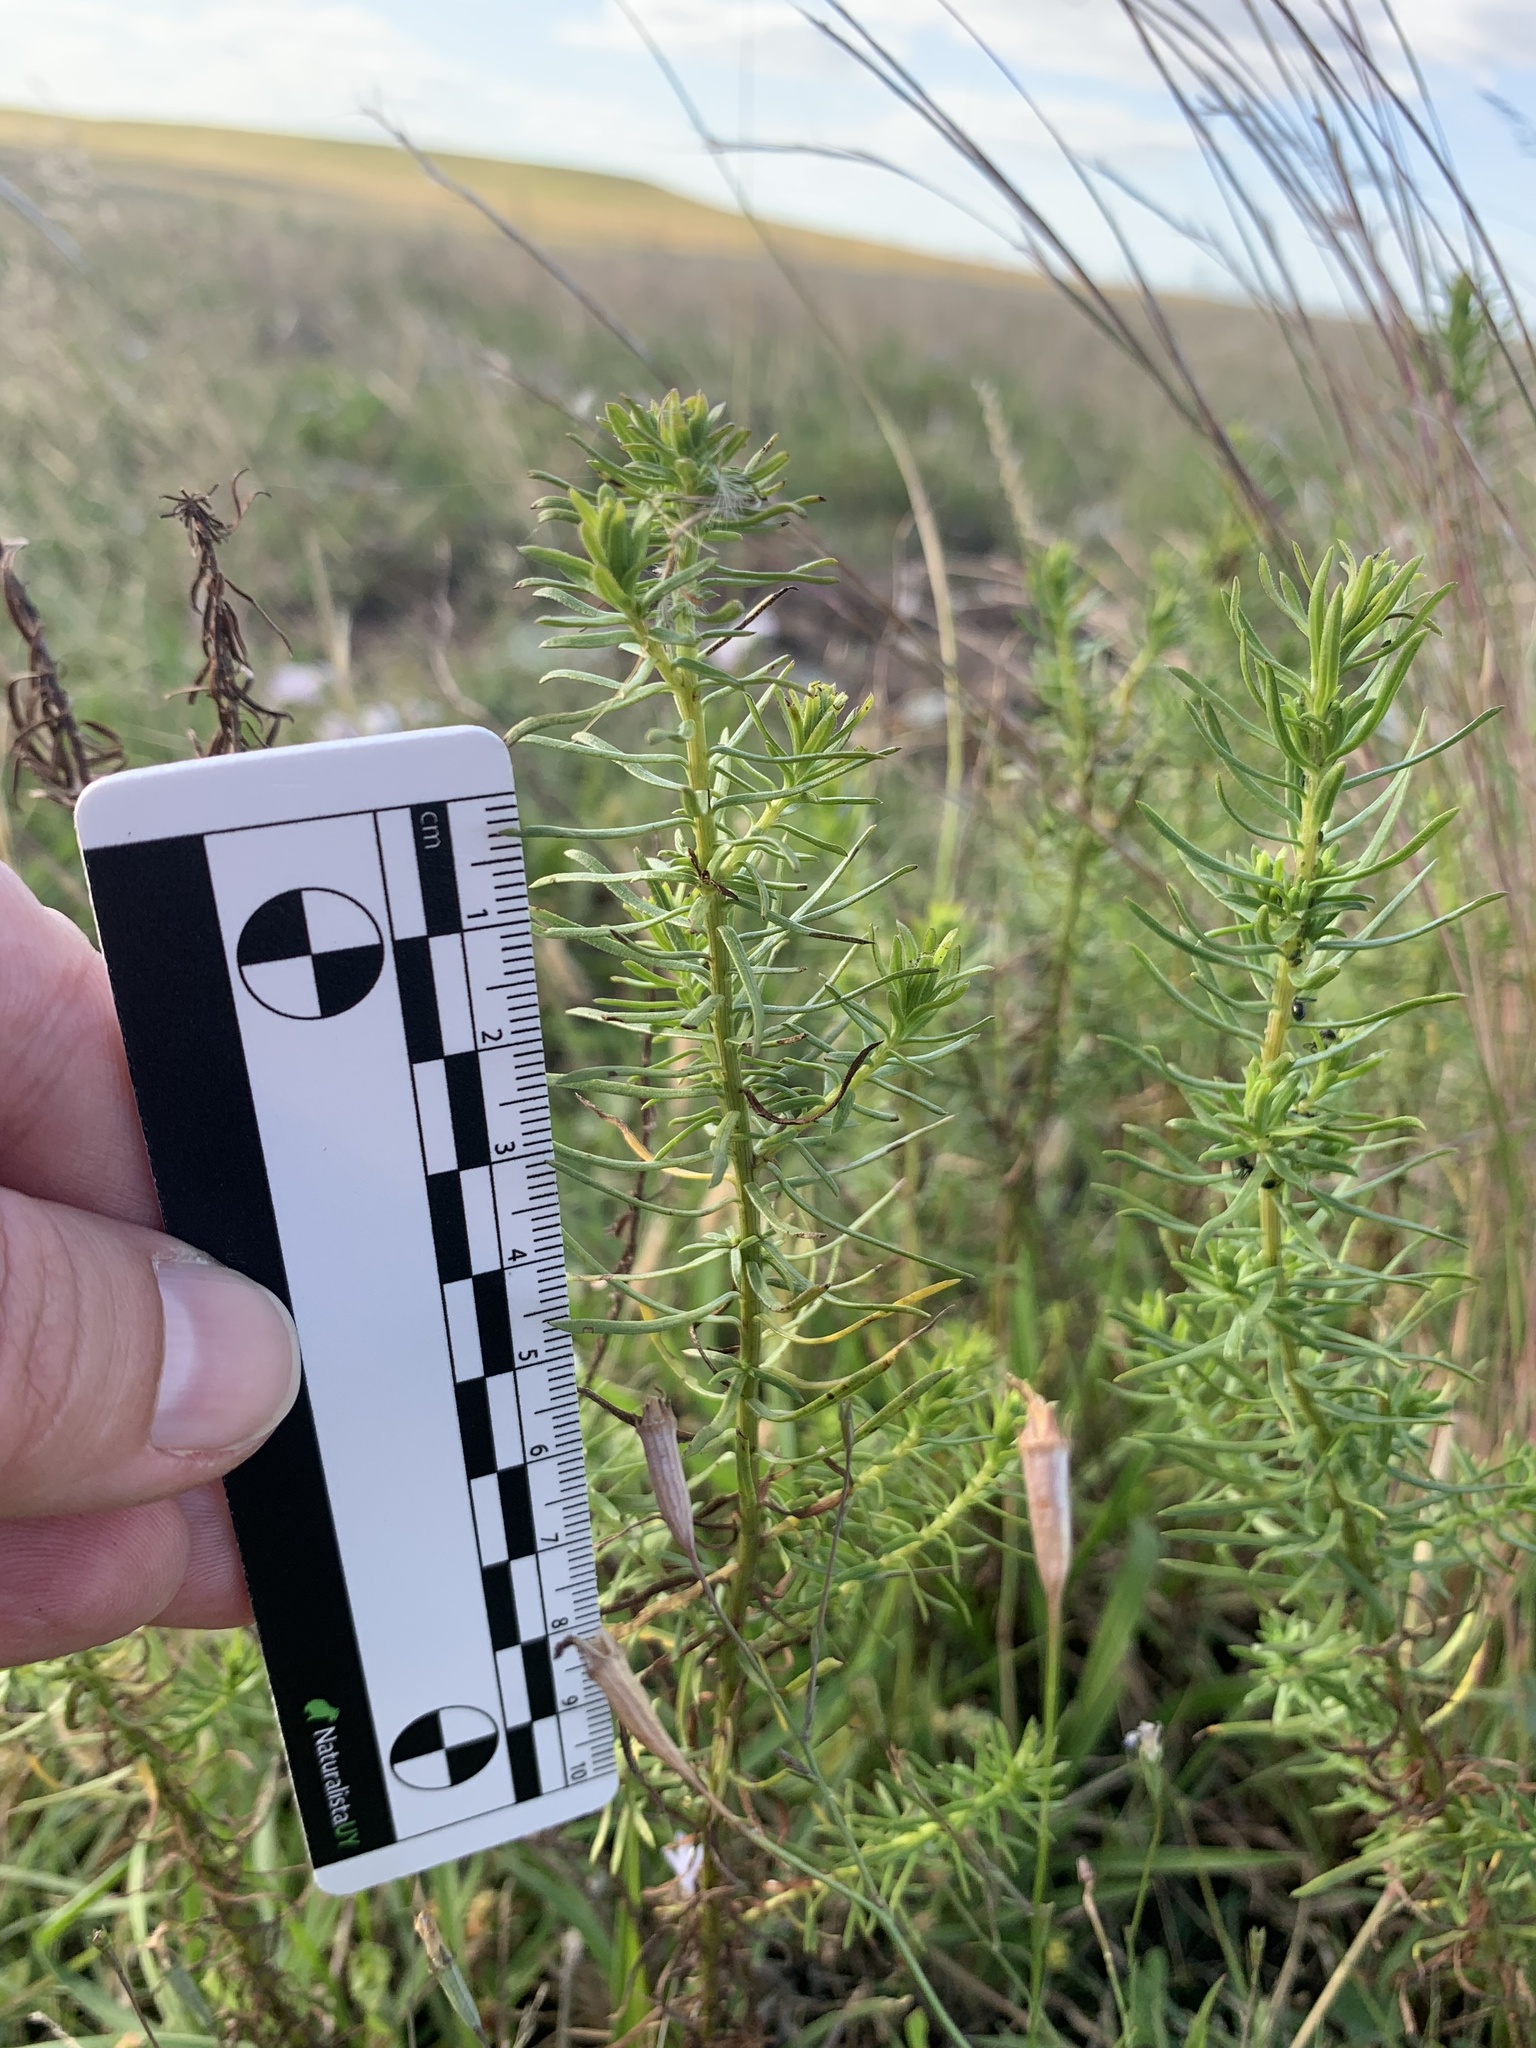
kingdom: Plantae
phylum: Tracheophyta
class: Magnoliopsida
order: Asterales
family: Asteraceae
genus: Baccharis
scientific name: Baccharis coridifolia
